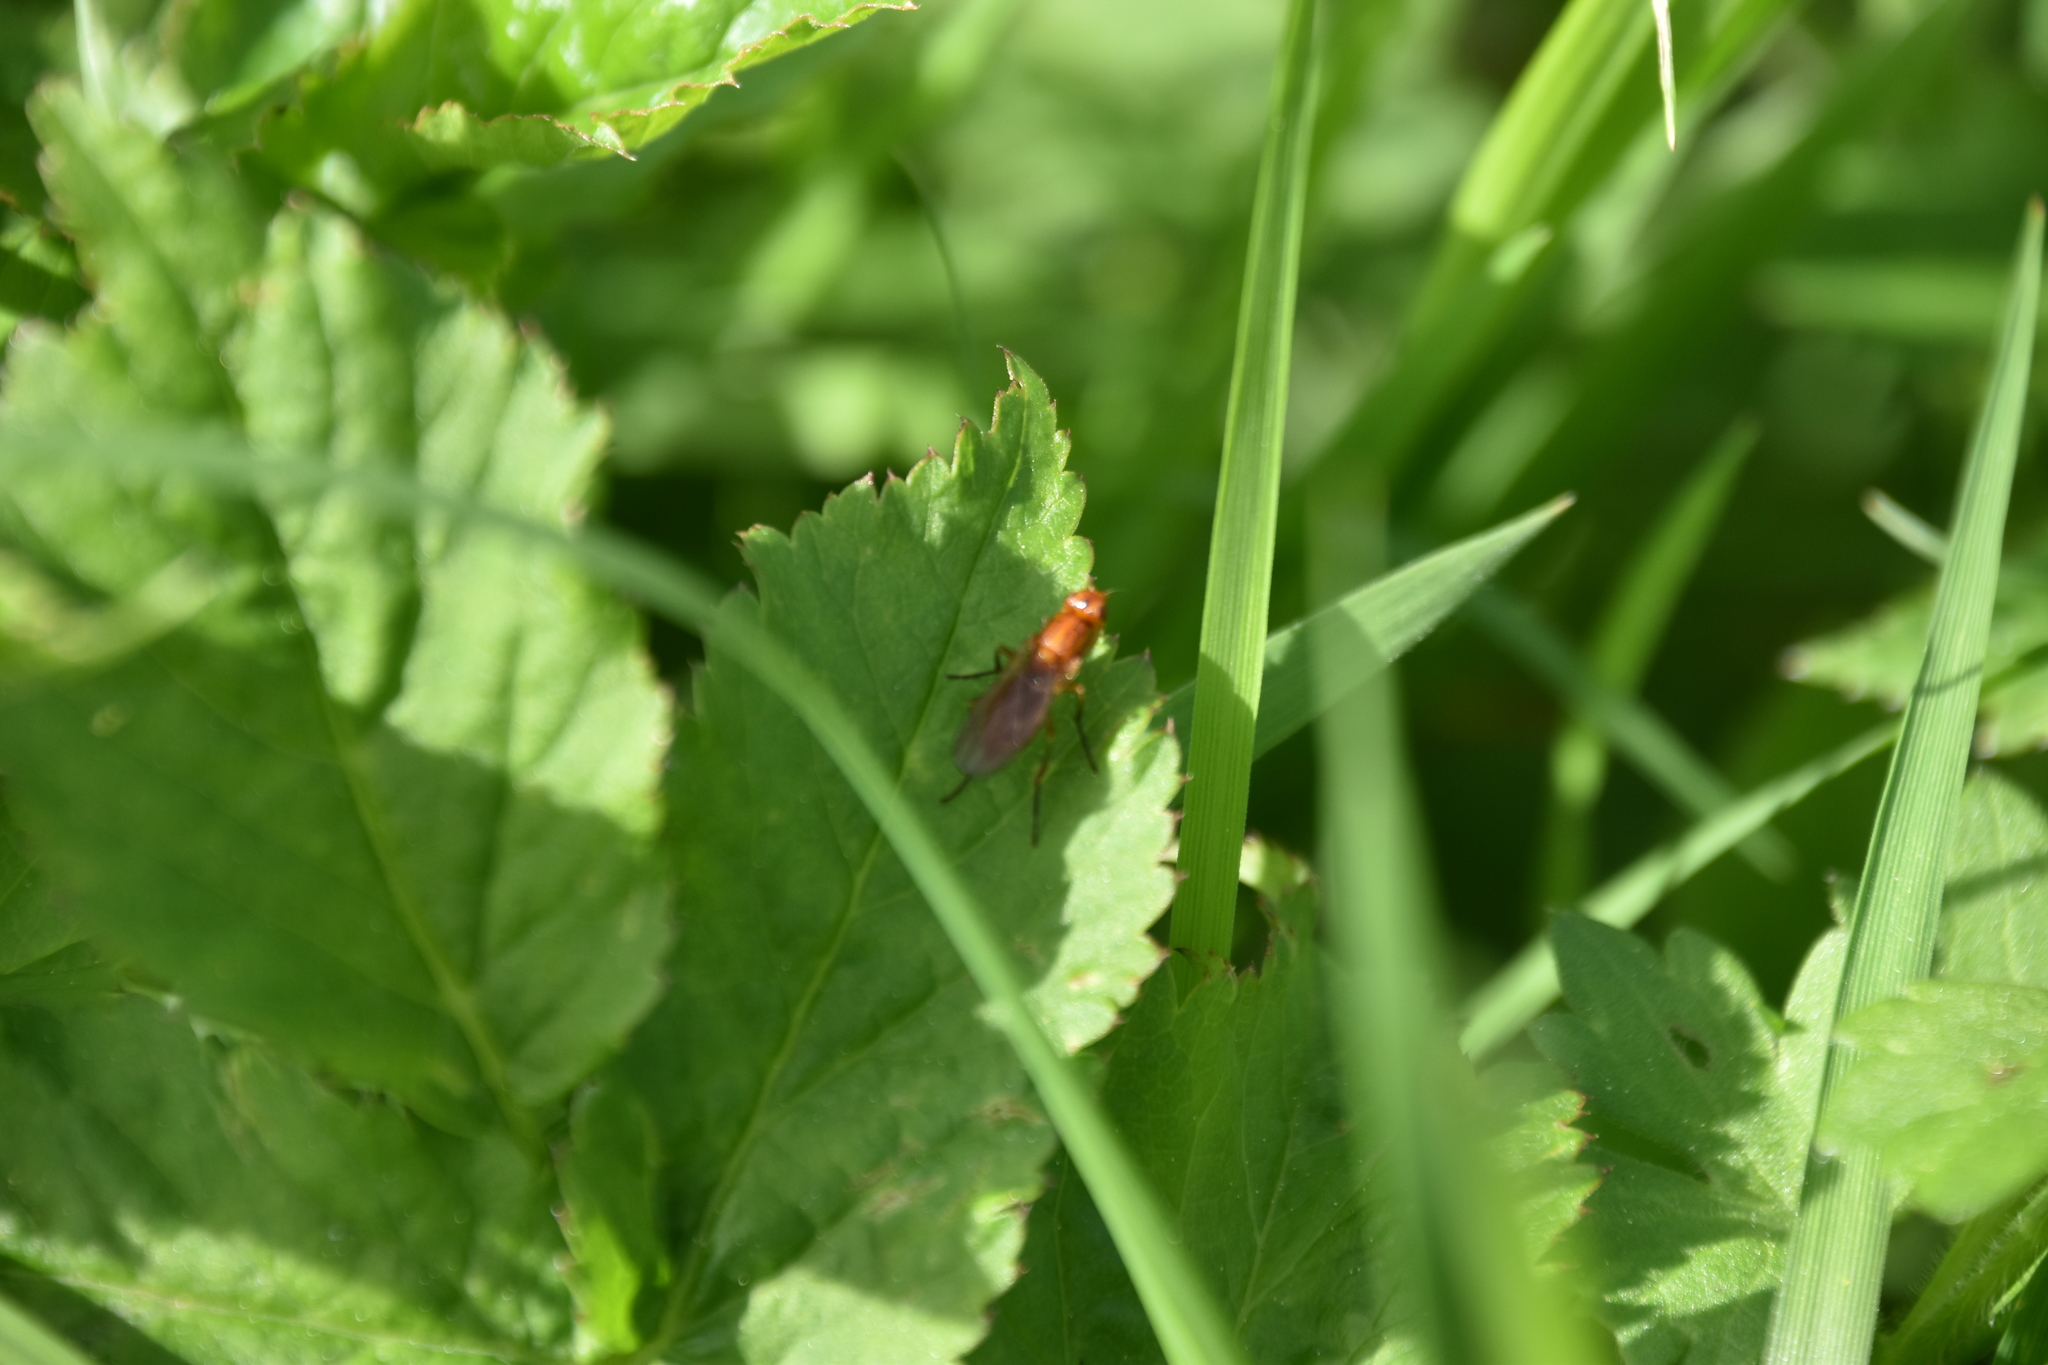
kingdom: Animalia
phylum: Arthropoda
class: Insecta
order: Diptera
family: Psilidae
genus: Psila
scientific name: Psila
